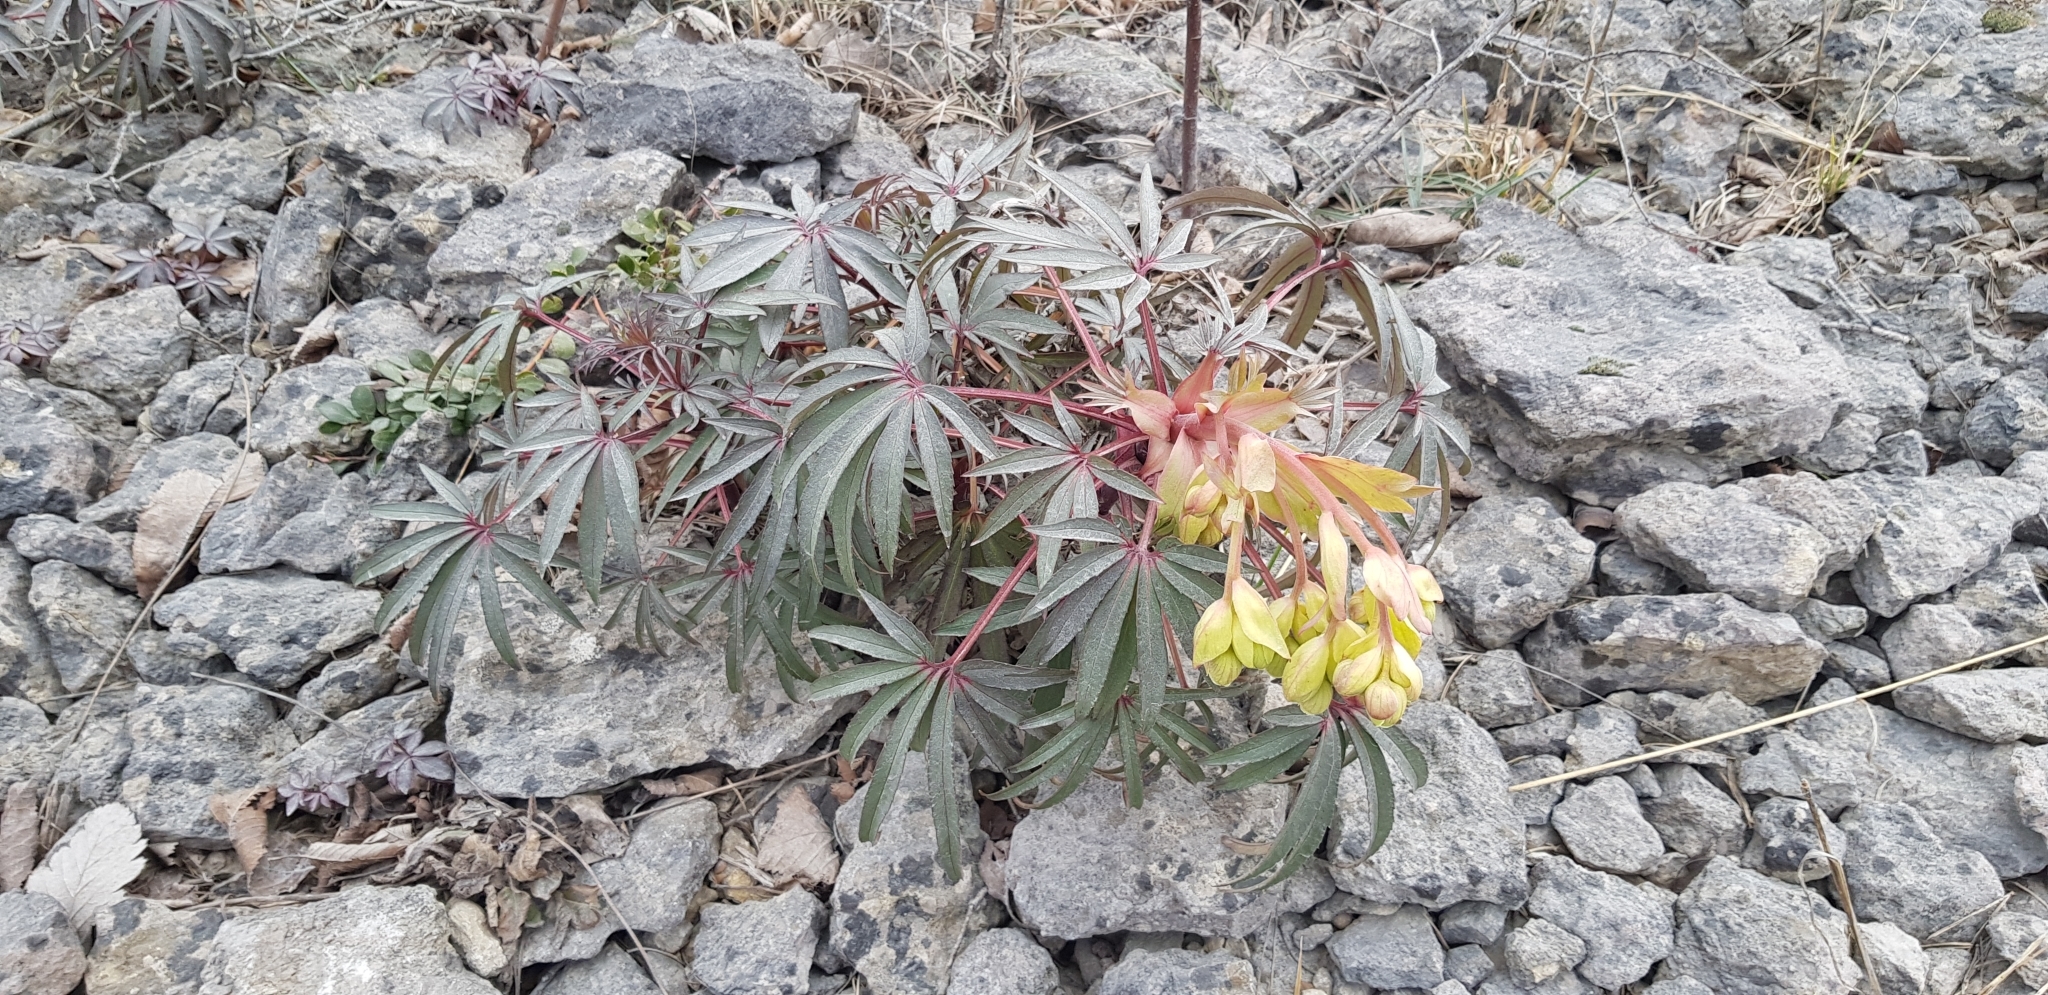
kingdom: Plantae
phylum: Tracheophyta
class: Magnoliopsida
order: Ranunculales
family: Ranunculaceae
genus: Helleborus
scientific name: Helleborus foetidus
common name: Stinking hellebore
